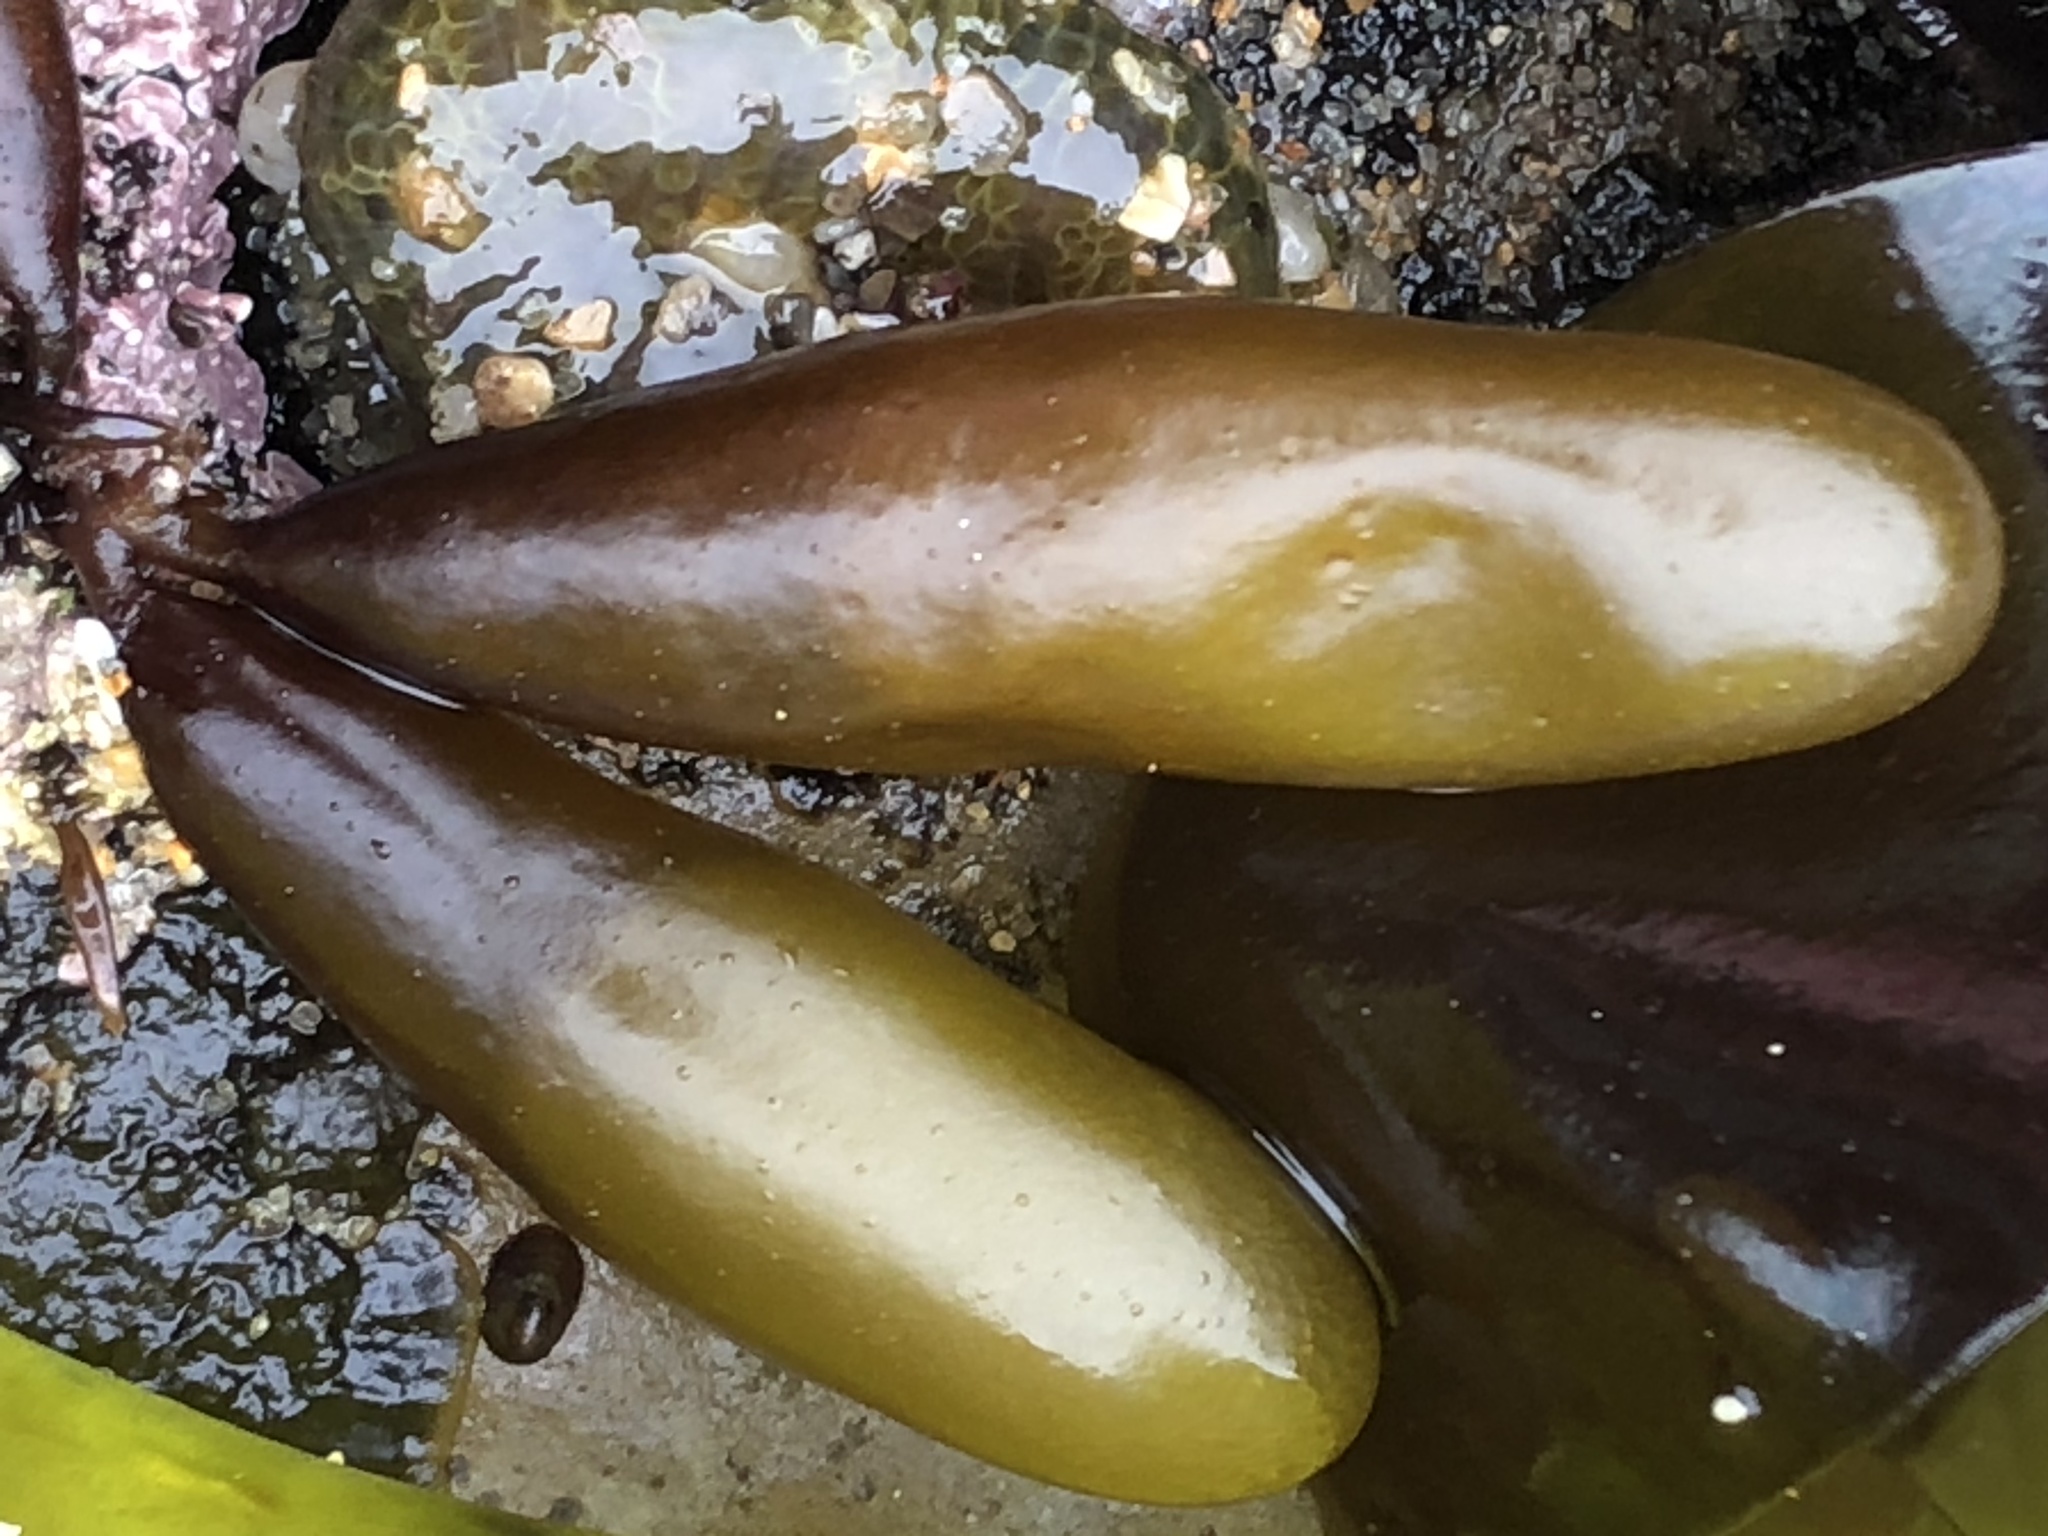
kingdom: Plantae
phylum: Rhodophyta
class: Florideophyceae
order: Palmariales
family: Palmariaceae
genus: Halosaccion
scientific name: Halosaccion glandiforme
